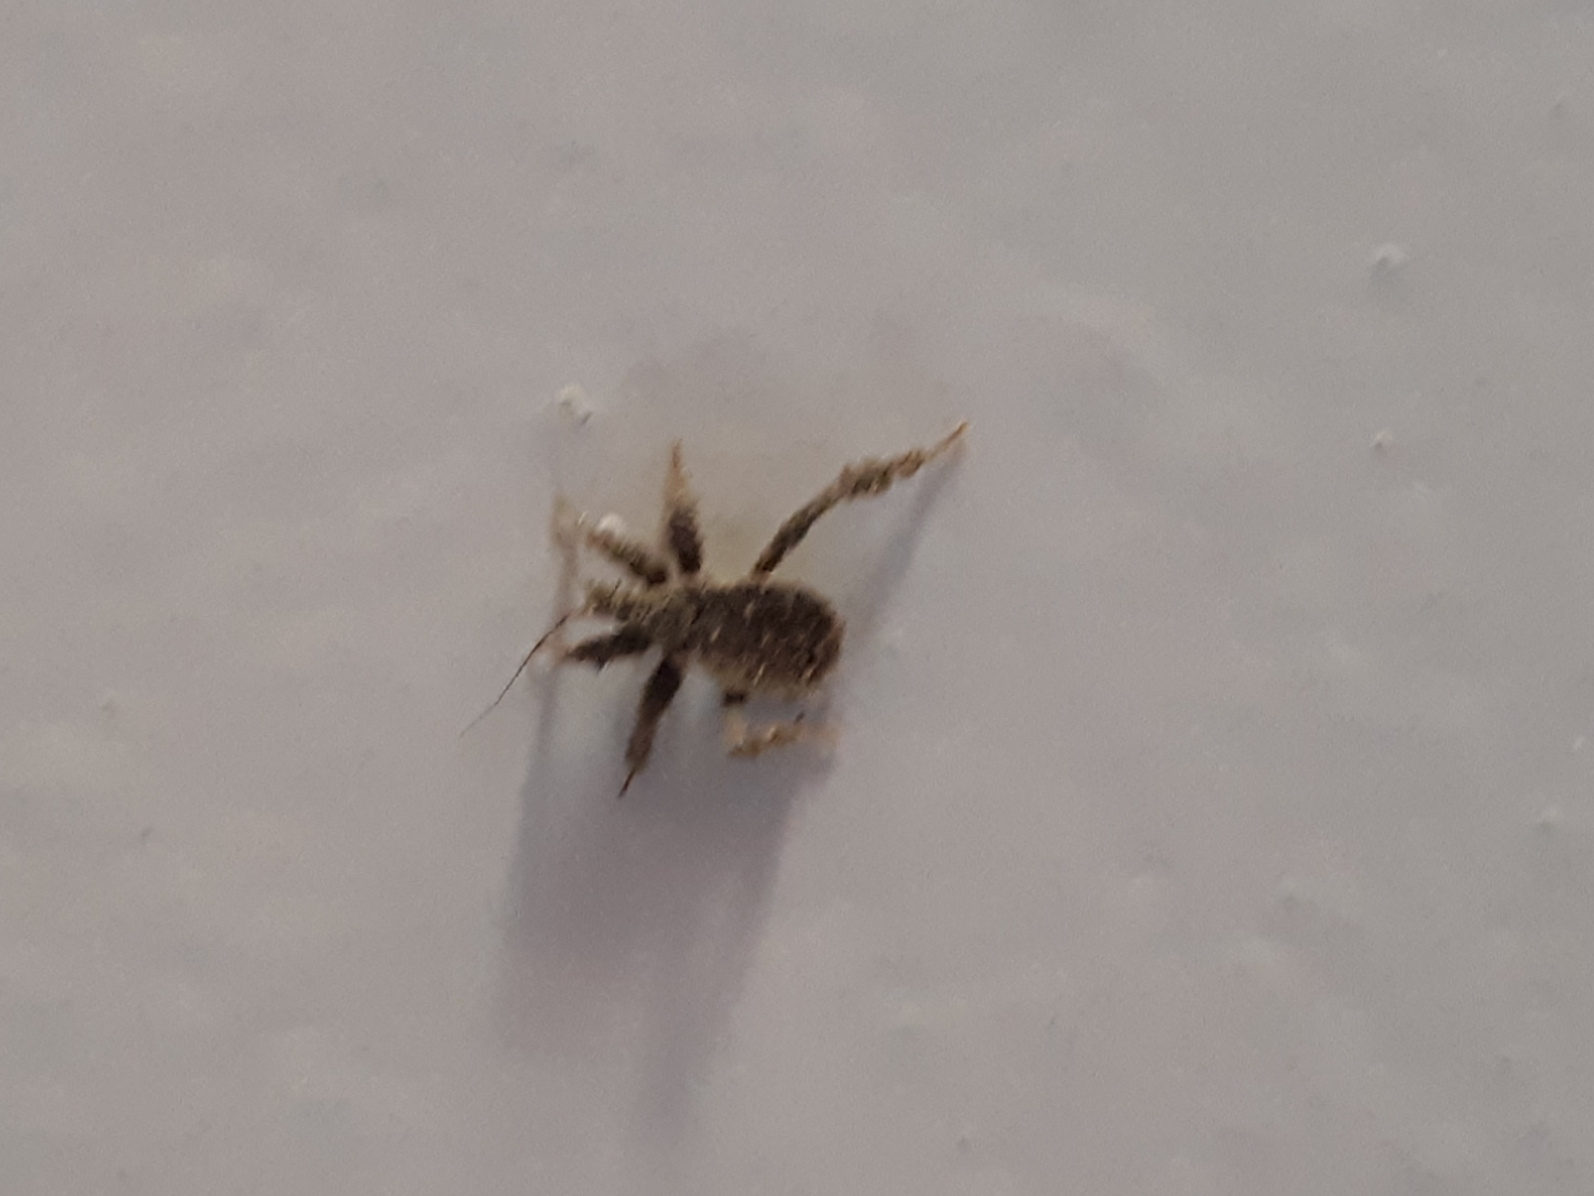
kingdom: Animalia
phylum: Arthropoda
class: Insecta
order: Hemiptera
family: Reduviidae
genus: Reduvius
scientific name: Reduvius personatus
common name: Masked hunter
